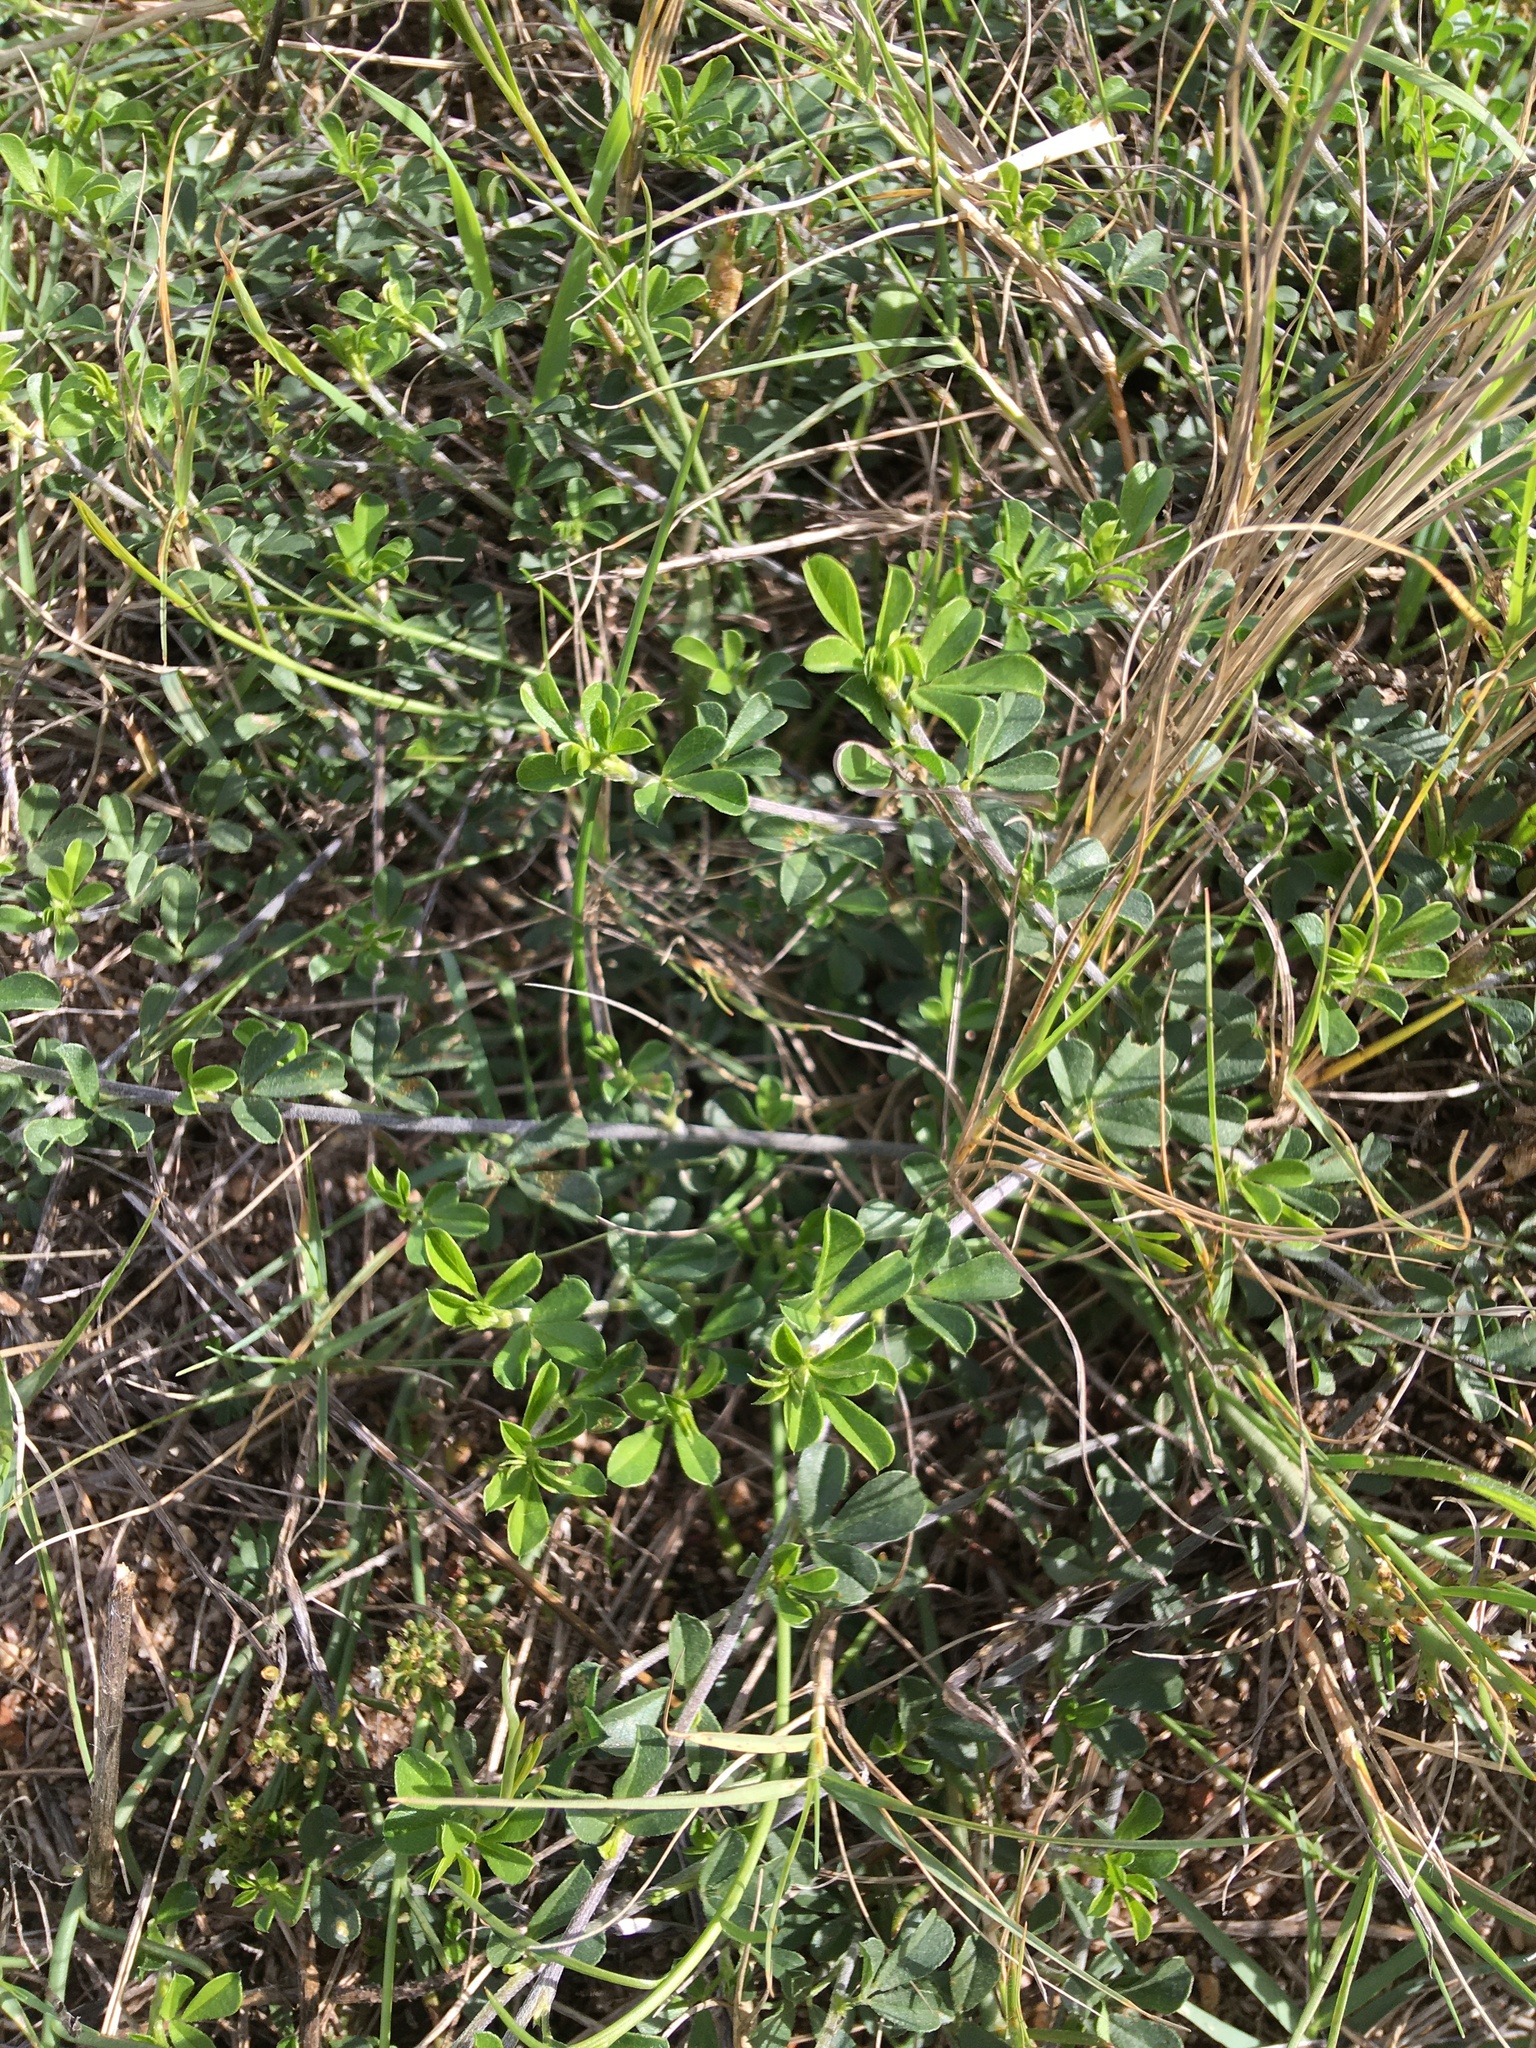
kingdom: Plantae
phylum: Tracheophyta
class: Magnoliopsida
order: Fabales
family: Fabaceae
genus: Psoralea
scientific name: Psoralea
